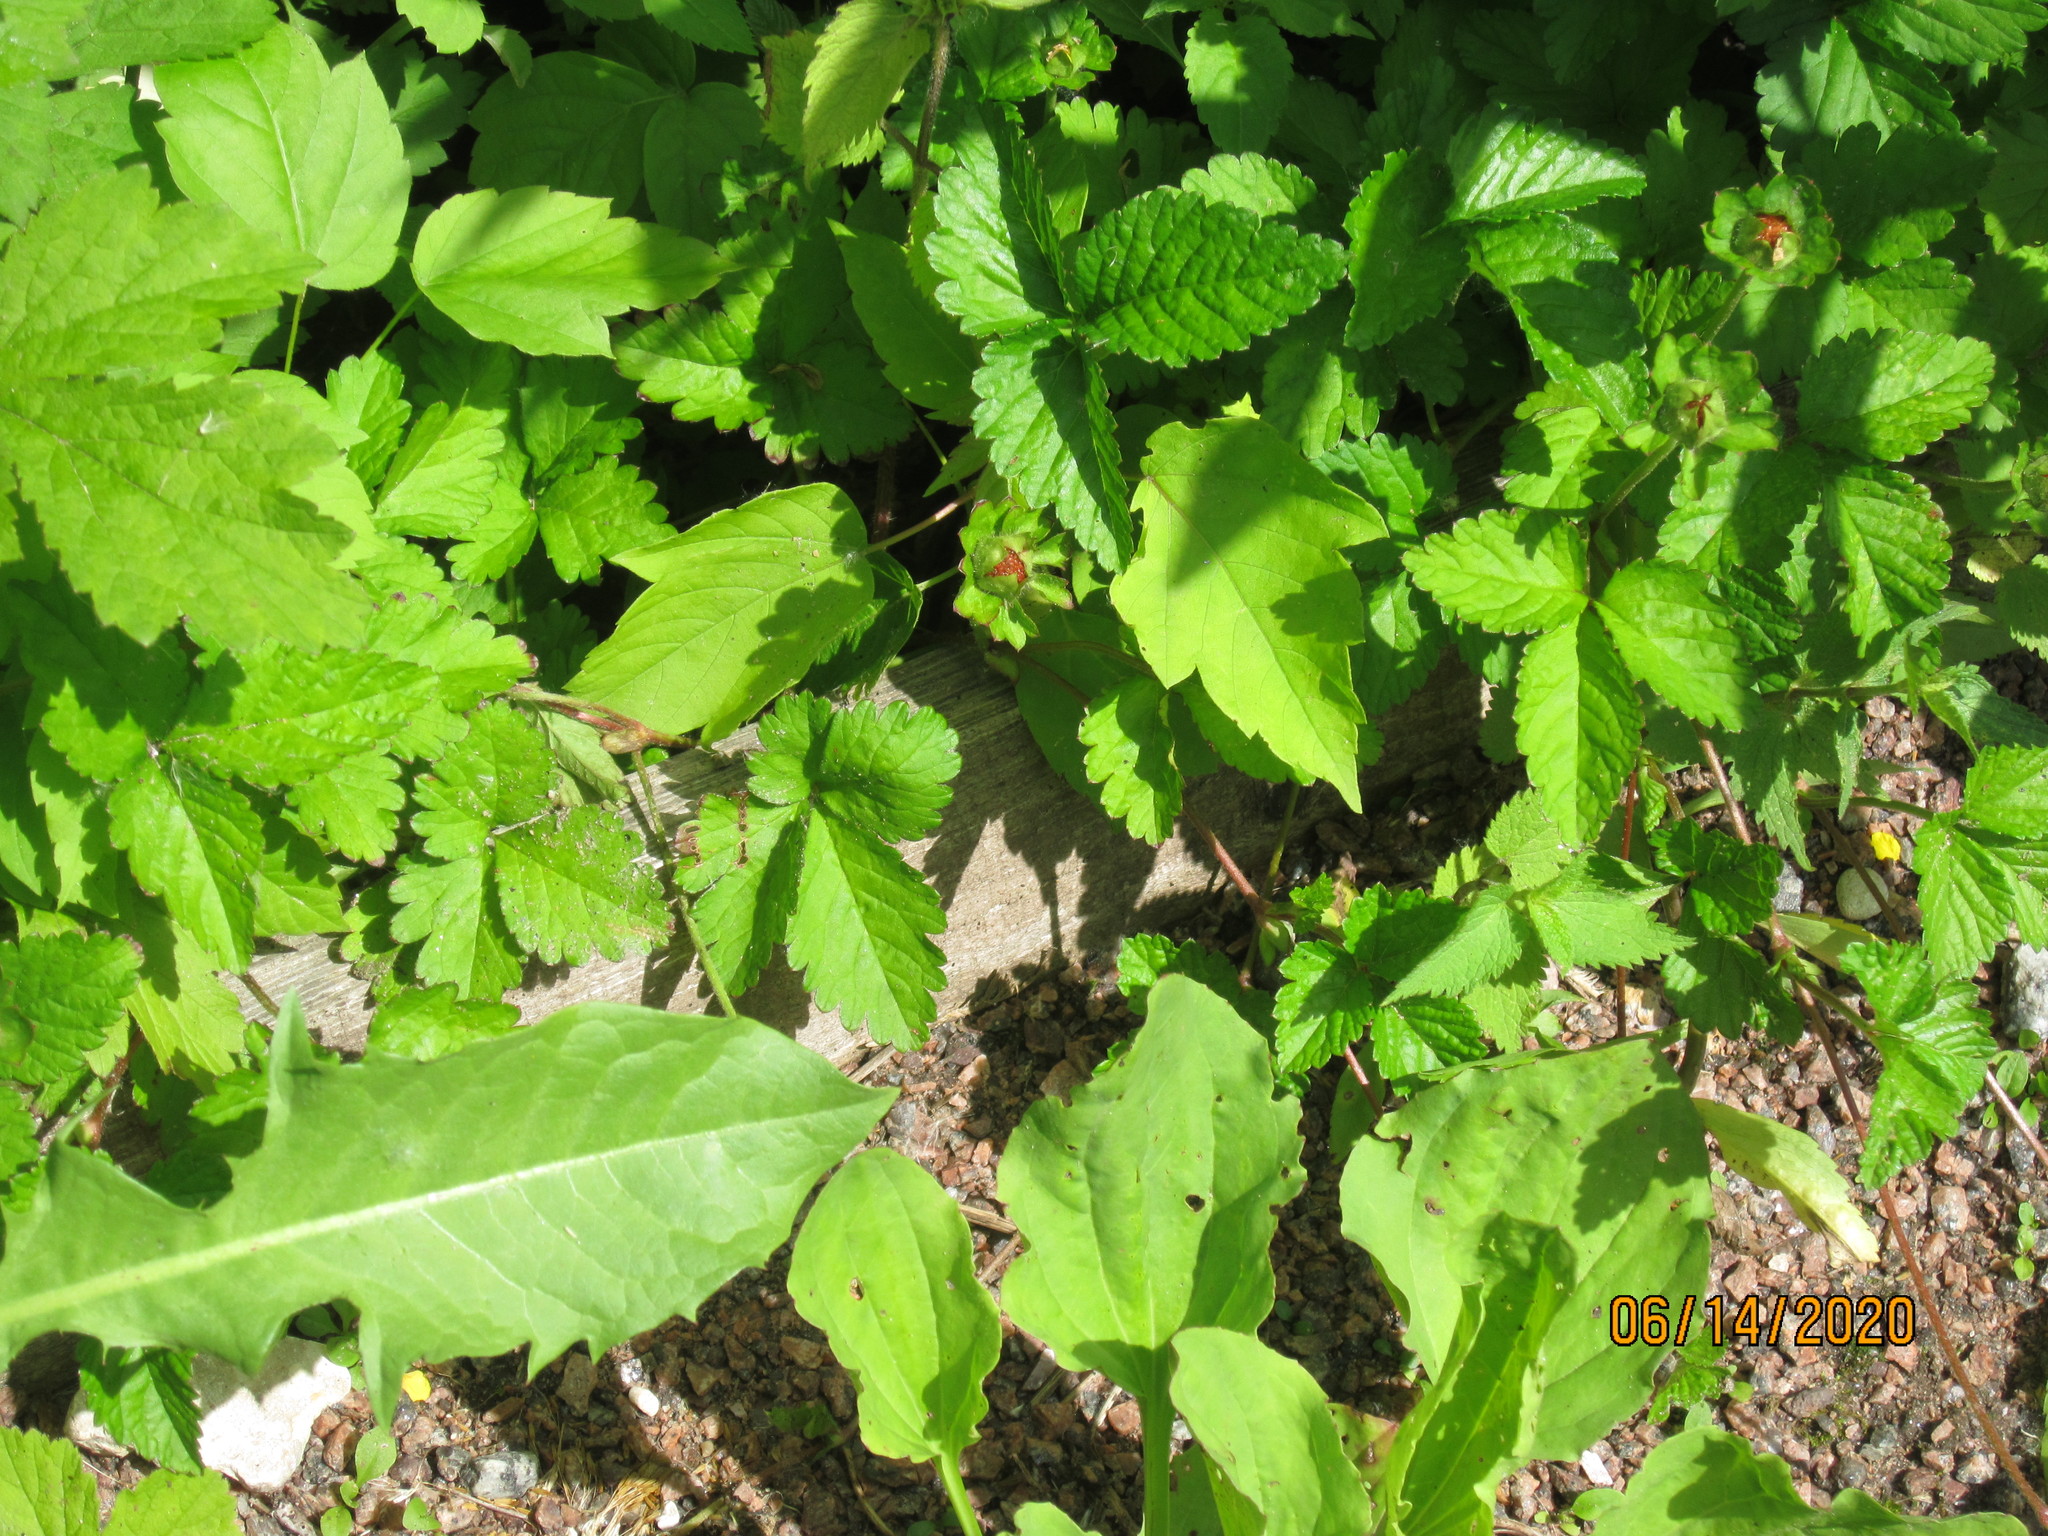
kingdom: Plantae
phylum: Tracheophyta
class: Magnoliopsida
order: Rosales
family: Rosaceae
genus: Potentilla
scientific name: Potentilla indica
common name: Yellow-flowered strawberry
